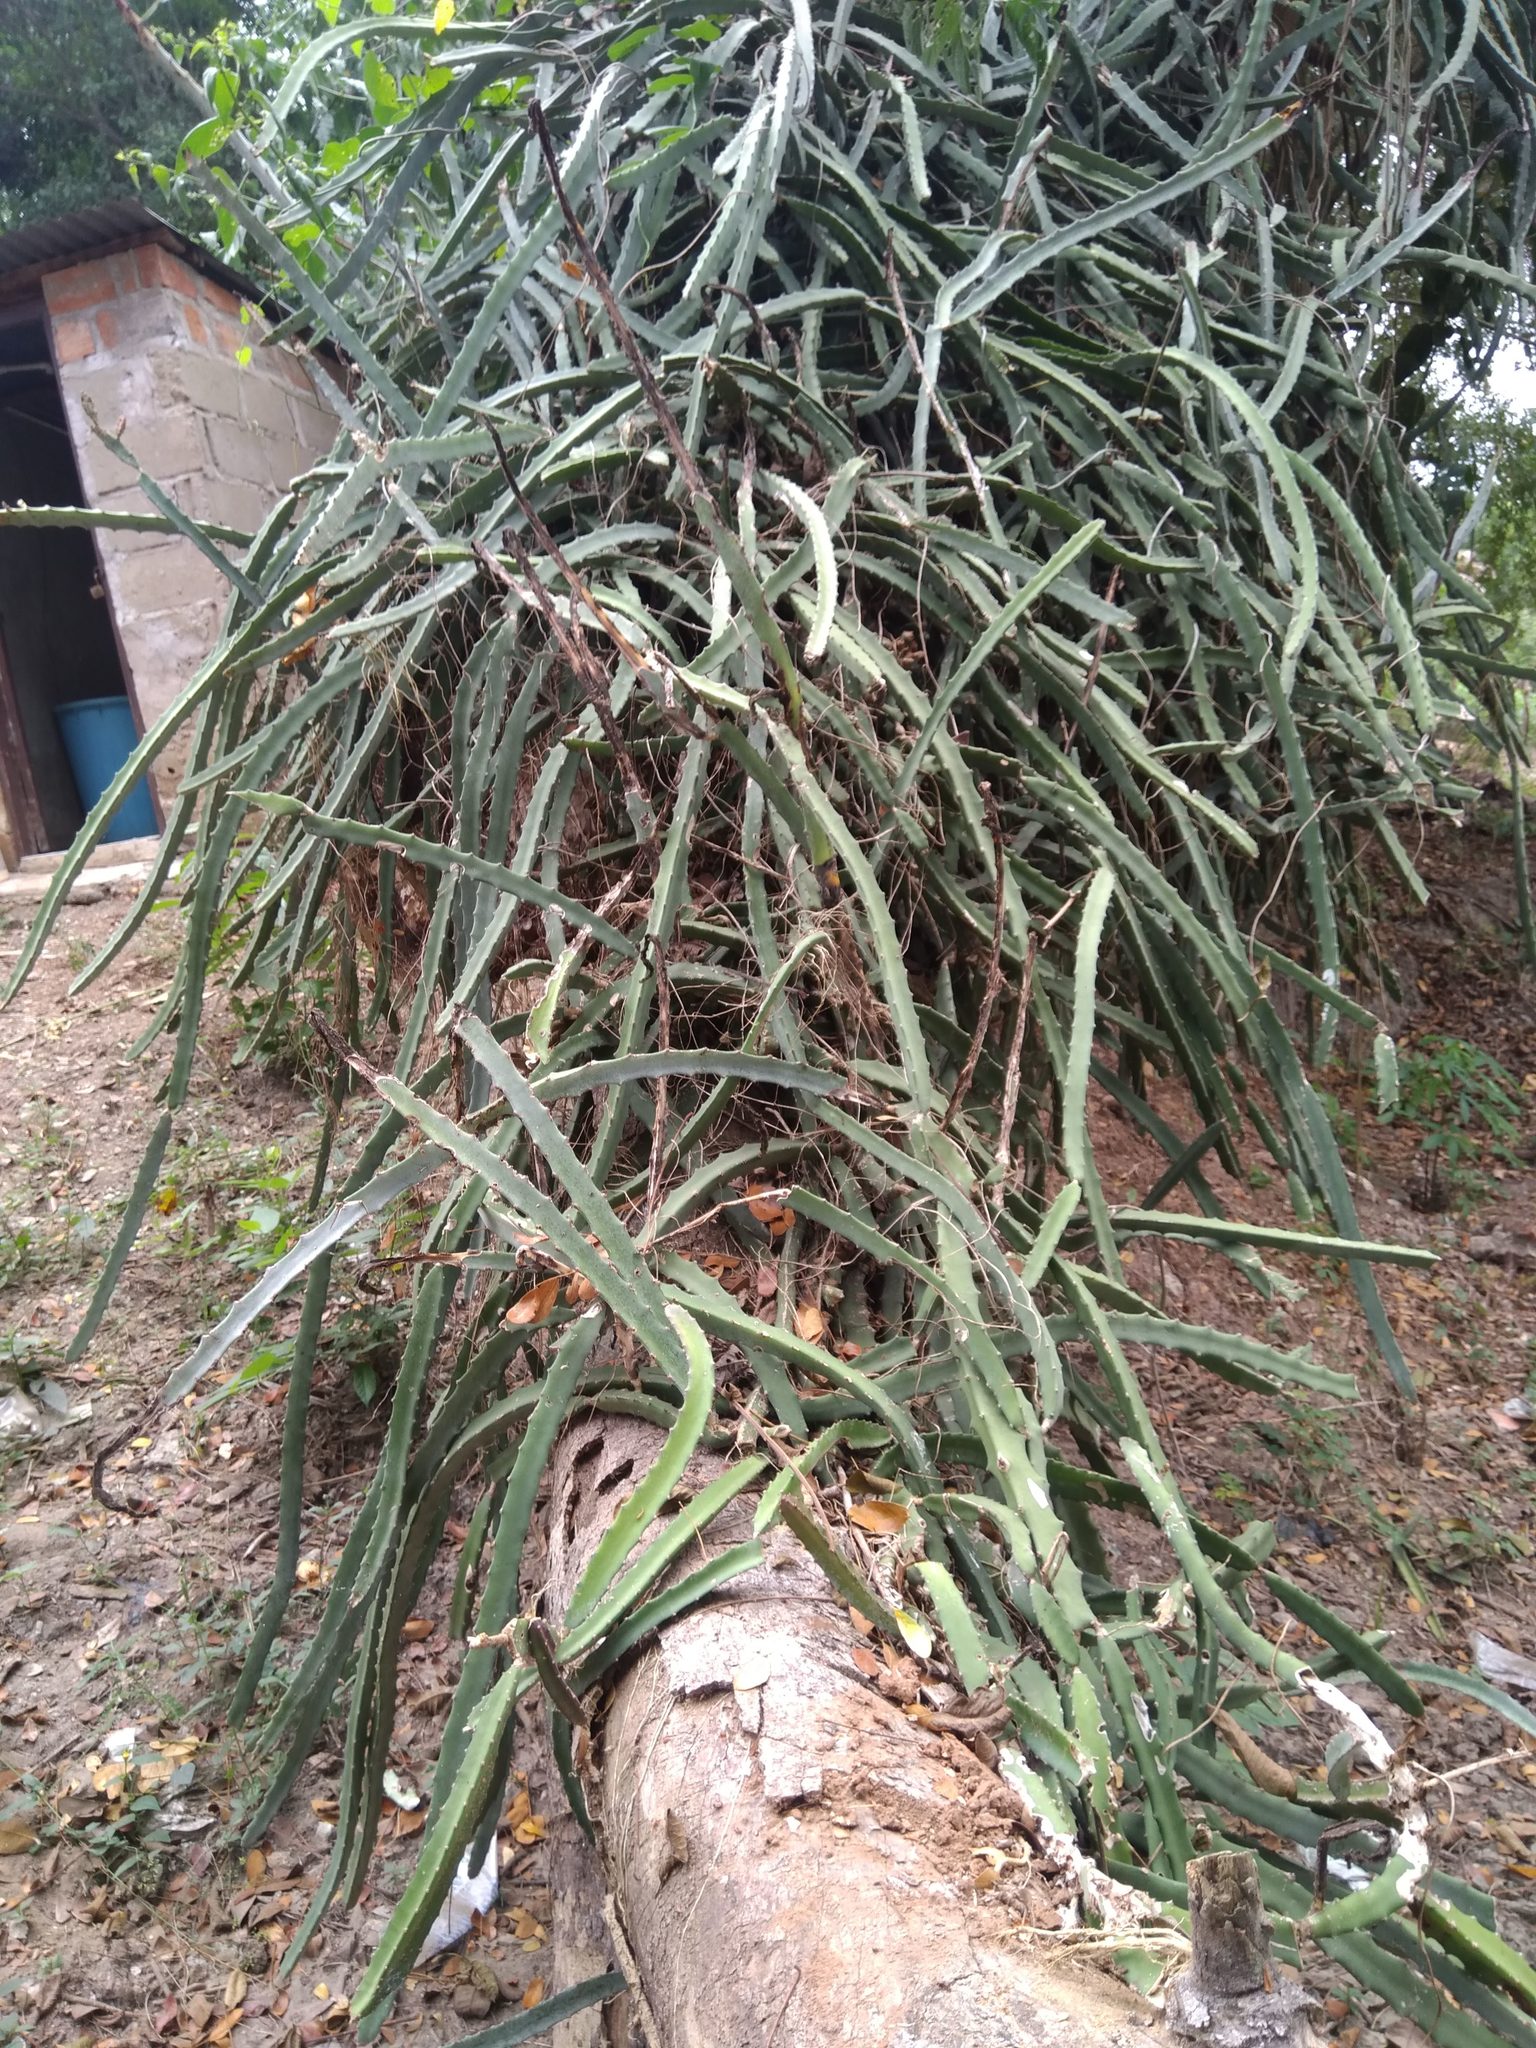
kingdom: Plantae
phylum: Tracheophyta
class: Magnoliopsida
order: Caryophyllales
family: Cactaceae
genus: Selenicereus
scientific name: Selenicereus undatus
